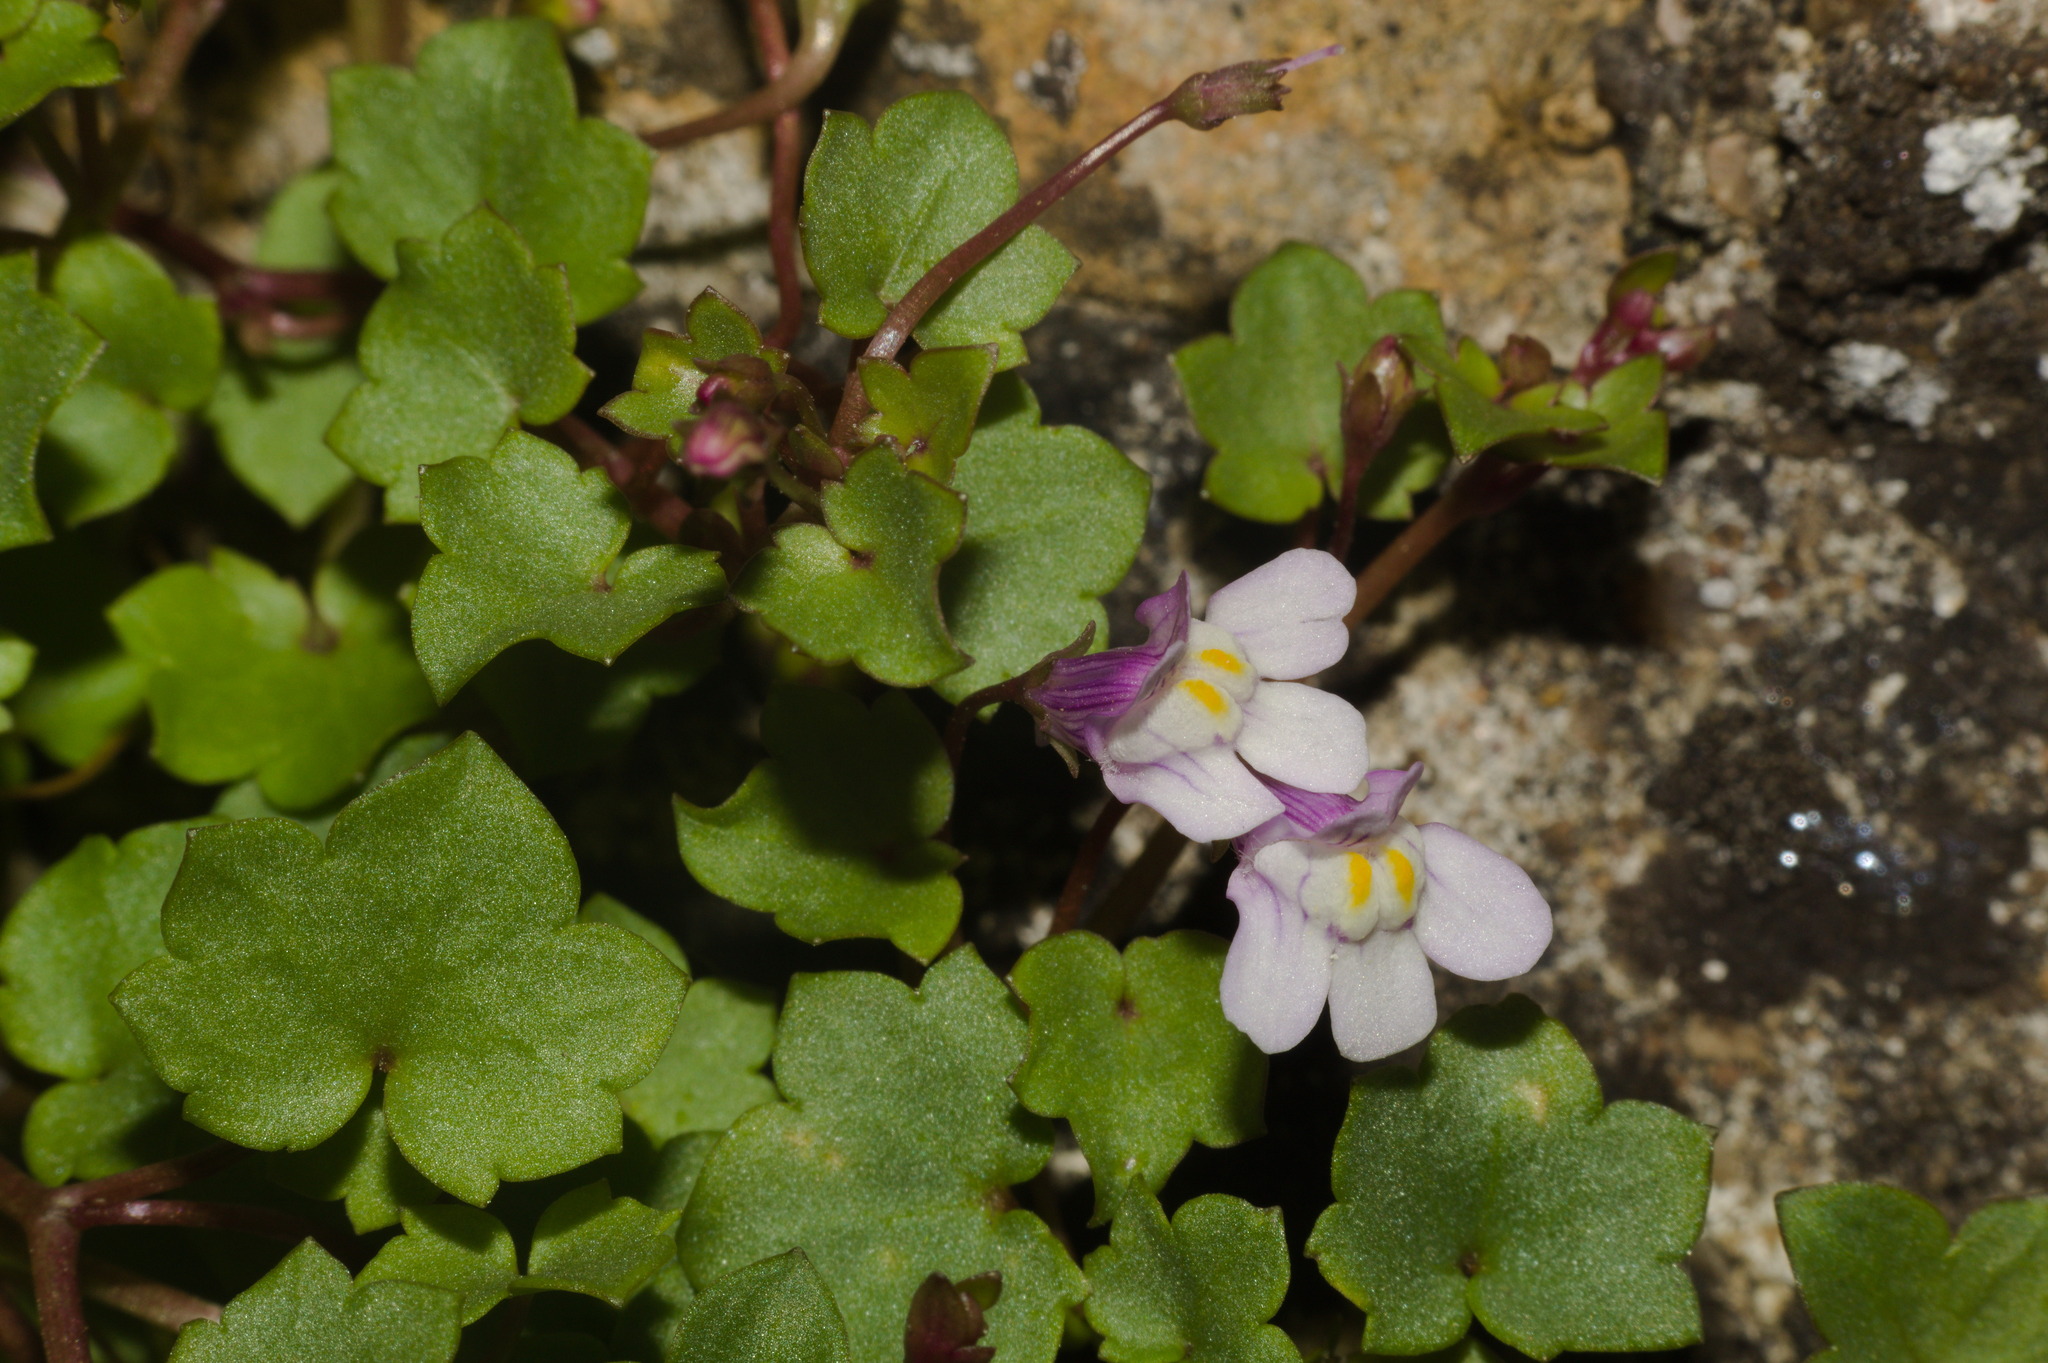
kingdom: Plantae
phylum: Tracheophyta
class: Magnoliopsida
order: Lamiales
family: Plantaginaceae
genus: Cymbalaria
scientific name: Cymbalaria muralis
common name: Ivy-leaved toadflax
